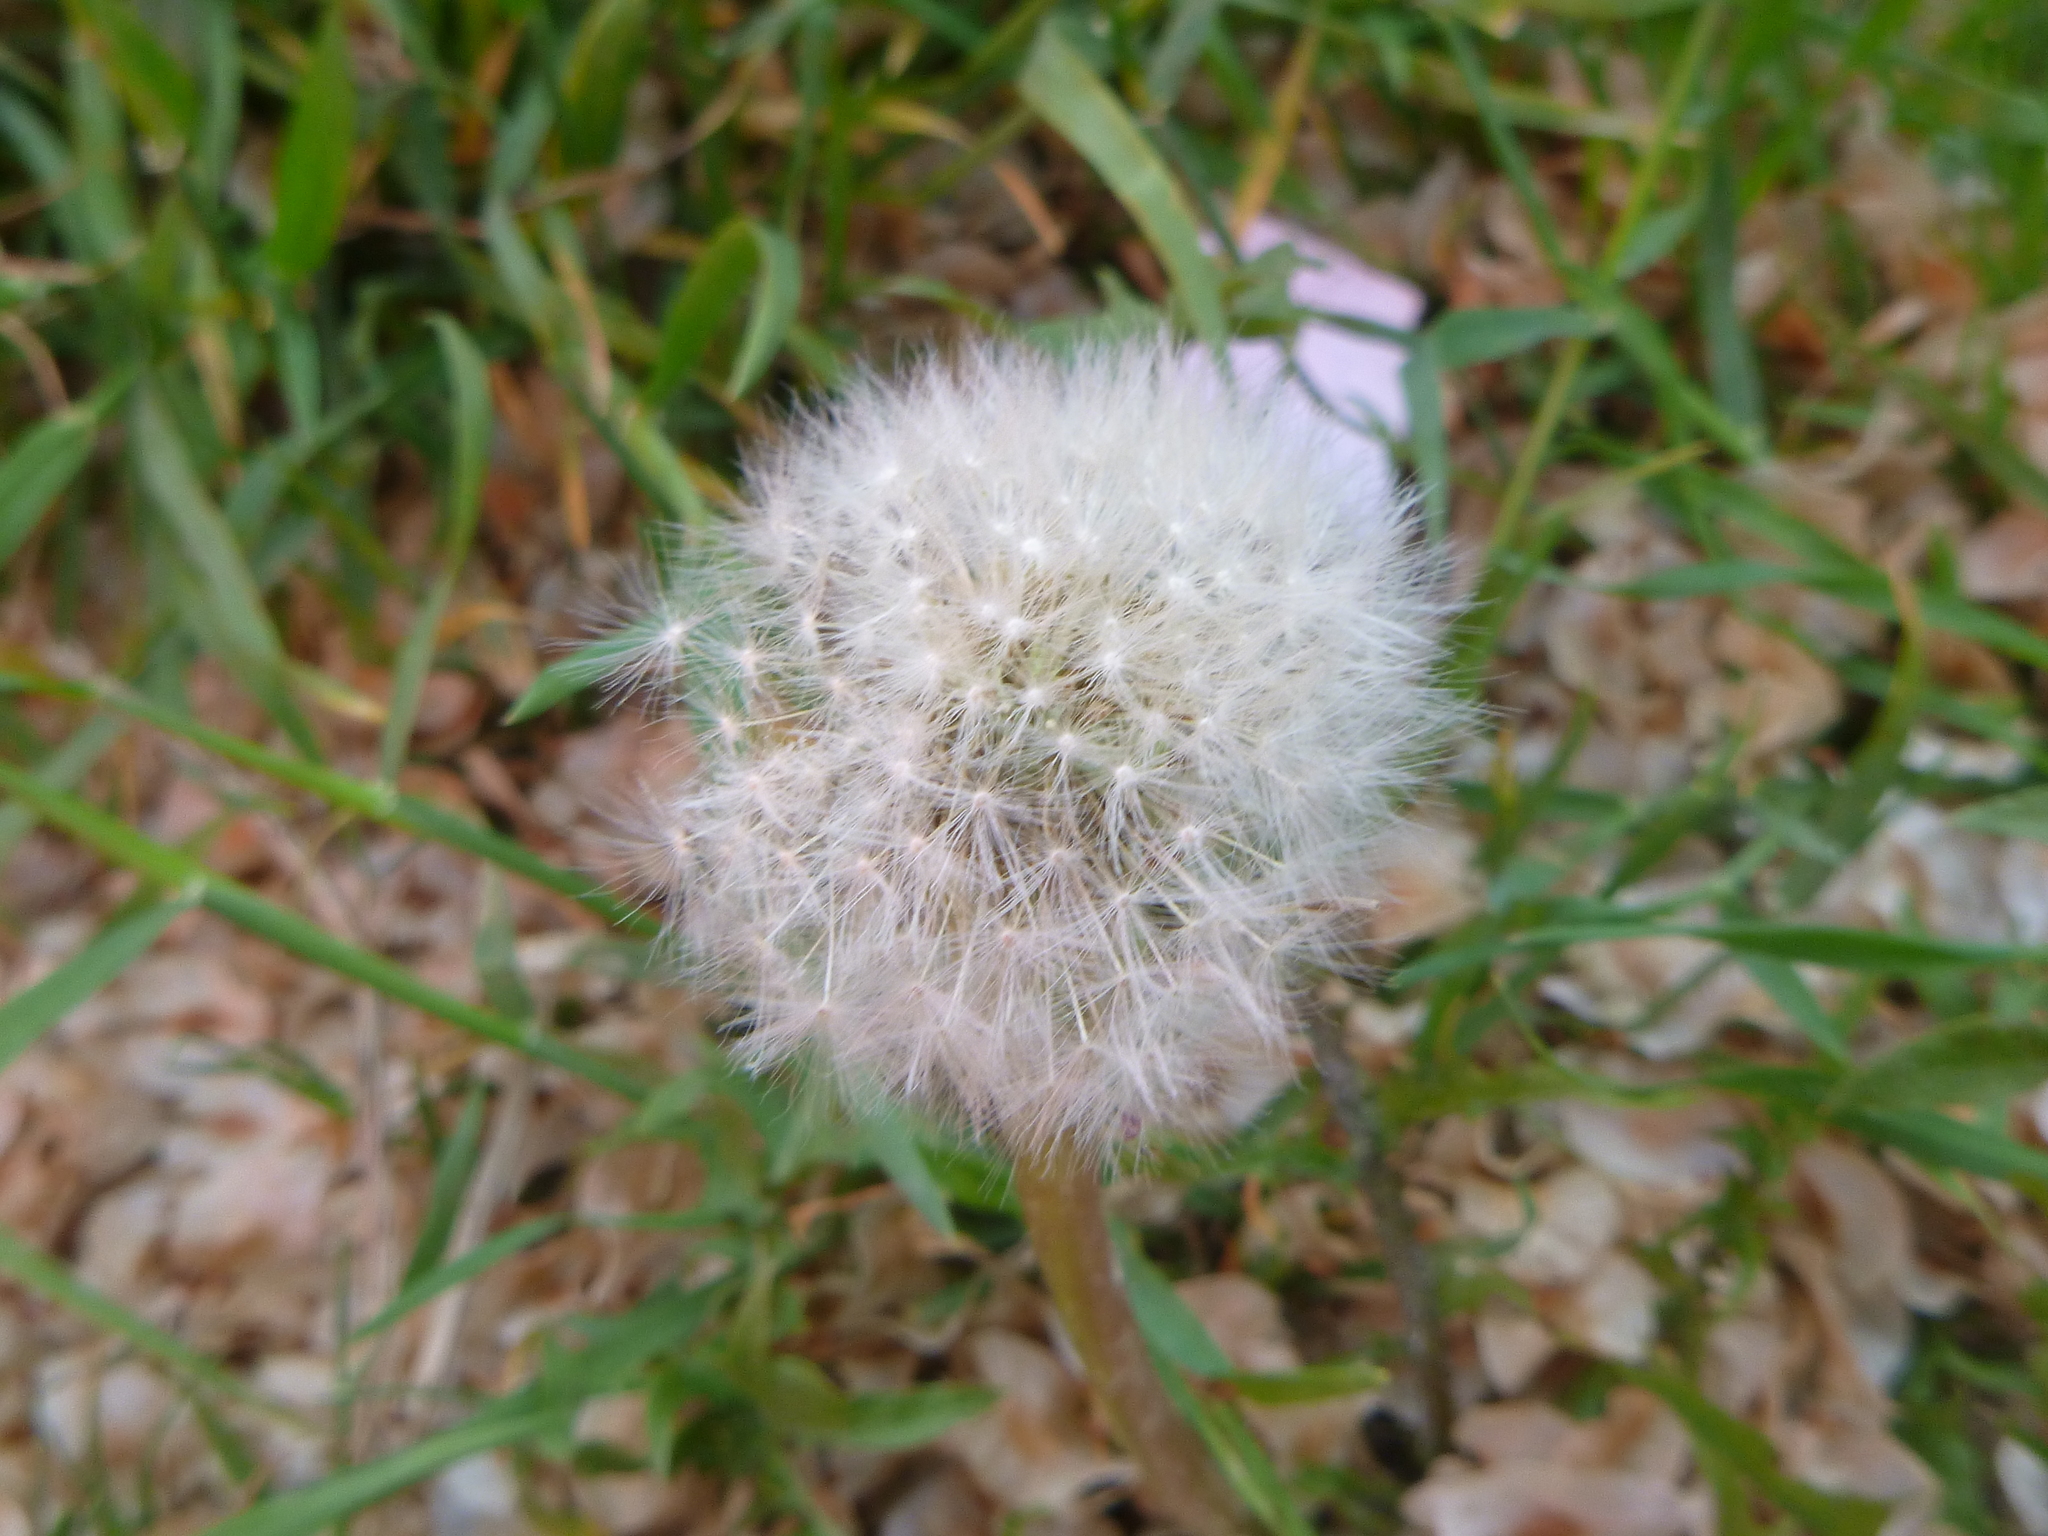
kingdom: Plantae
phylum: Tracheophyta
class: Magnoliopsida
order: Asterales
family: Asteraceae
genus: Taraxacum
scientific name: Taraxacum officinale
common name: Common dandelion
